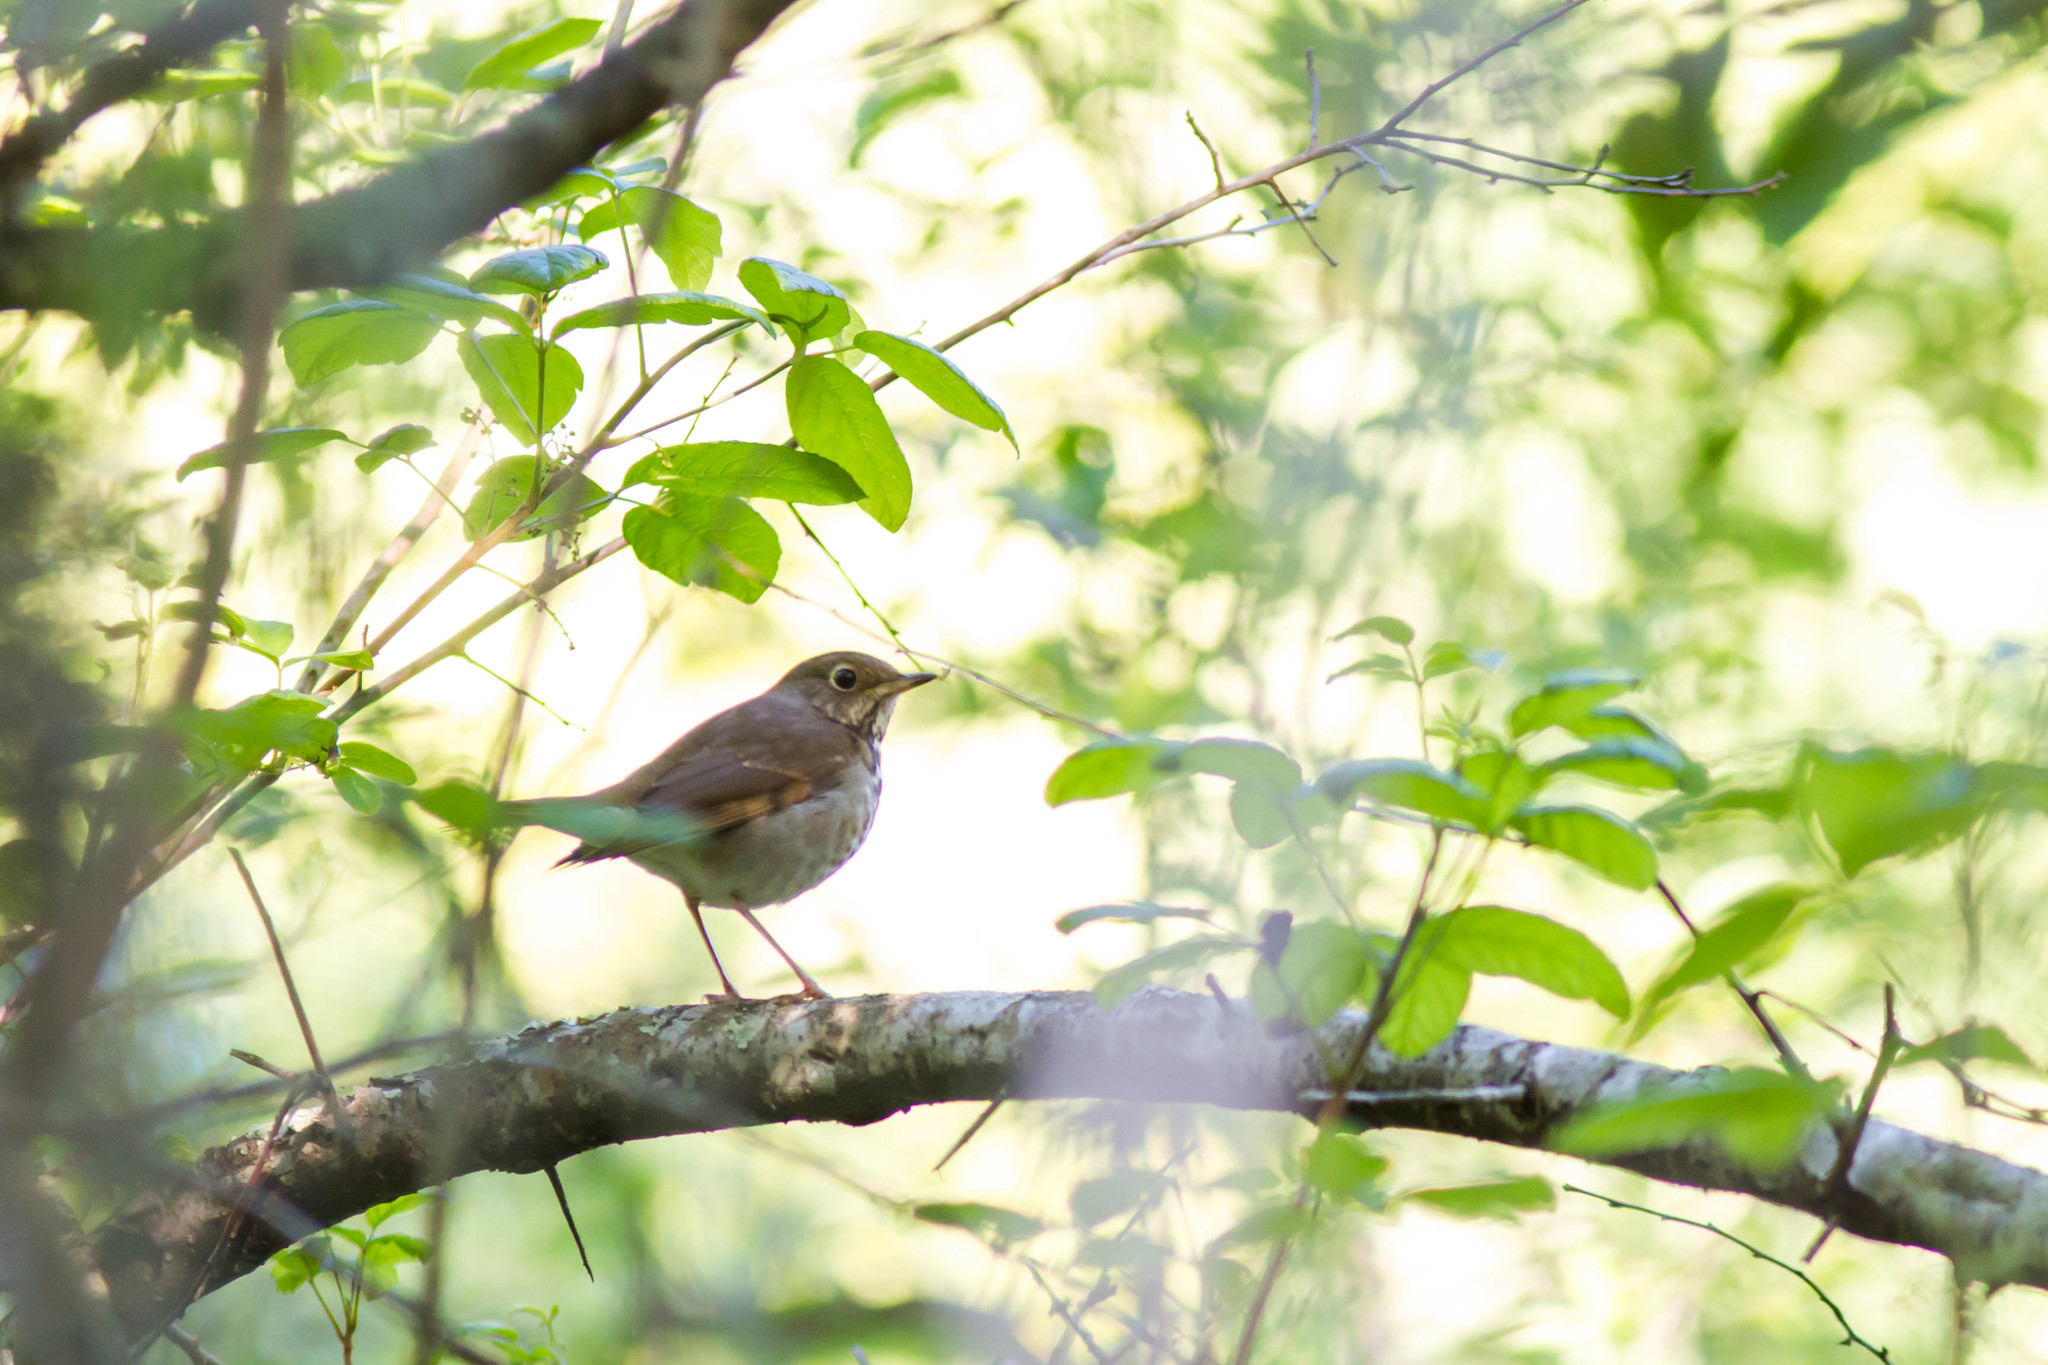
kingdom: Animalia
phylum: Chordata
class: Aves
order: Passeriformes
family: Turdidae
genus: Catharus
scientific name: Catharus guttatus
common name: Hermit thrush
